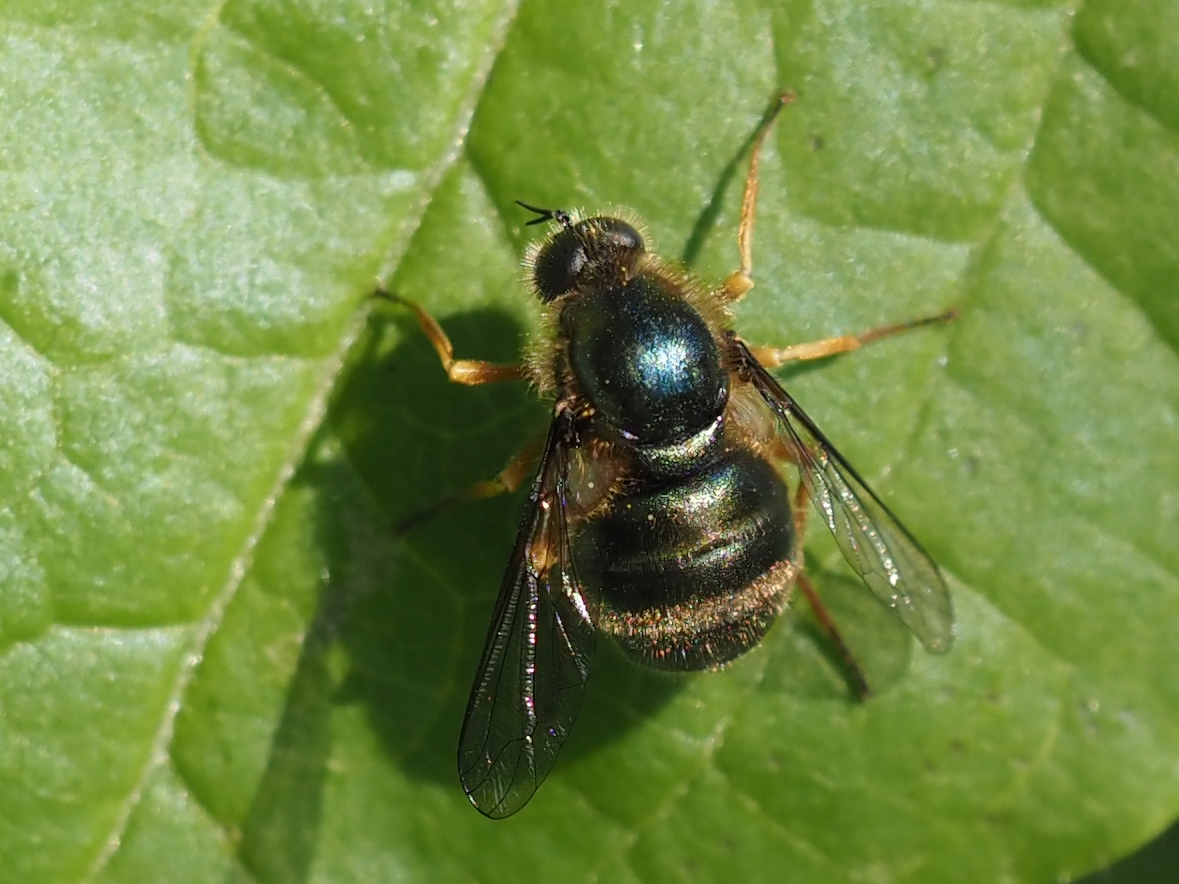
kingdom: Animalia
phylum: Arthropoda
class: Insecta
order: Diptera
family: Acroceridae
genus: Eulonchus
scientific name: Eulonchus sapphirinus
